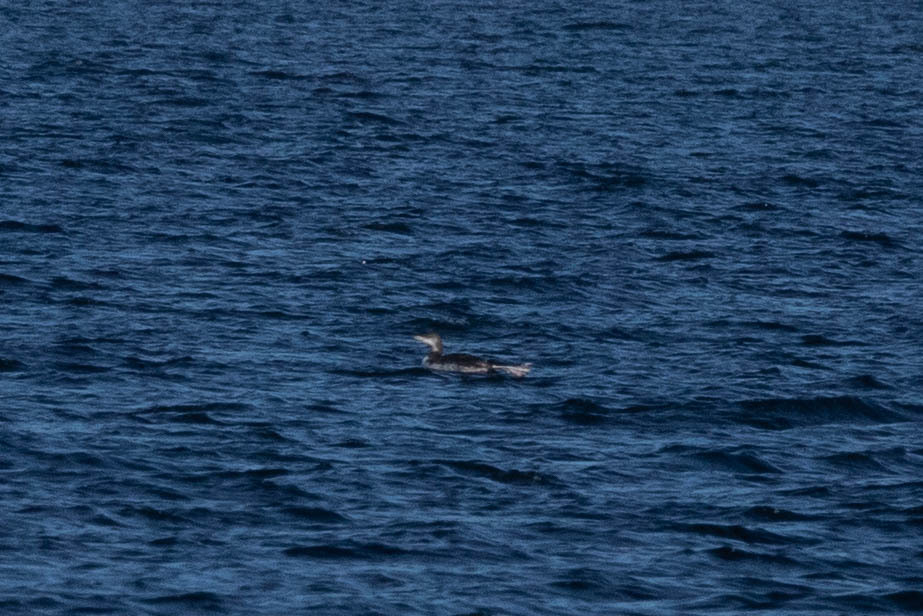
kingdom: Animalia
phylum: Chordata
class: Aves
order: Gaviiformes
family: Gaviidae
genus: Gavia
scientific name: Gavia immer
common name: Common loon
